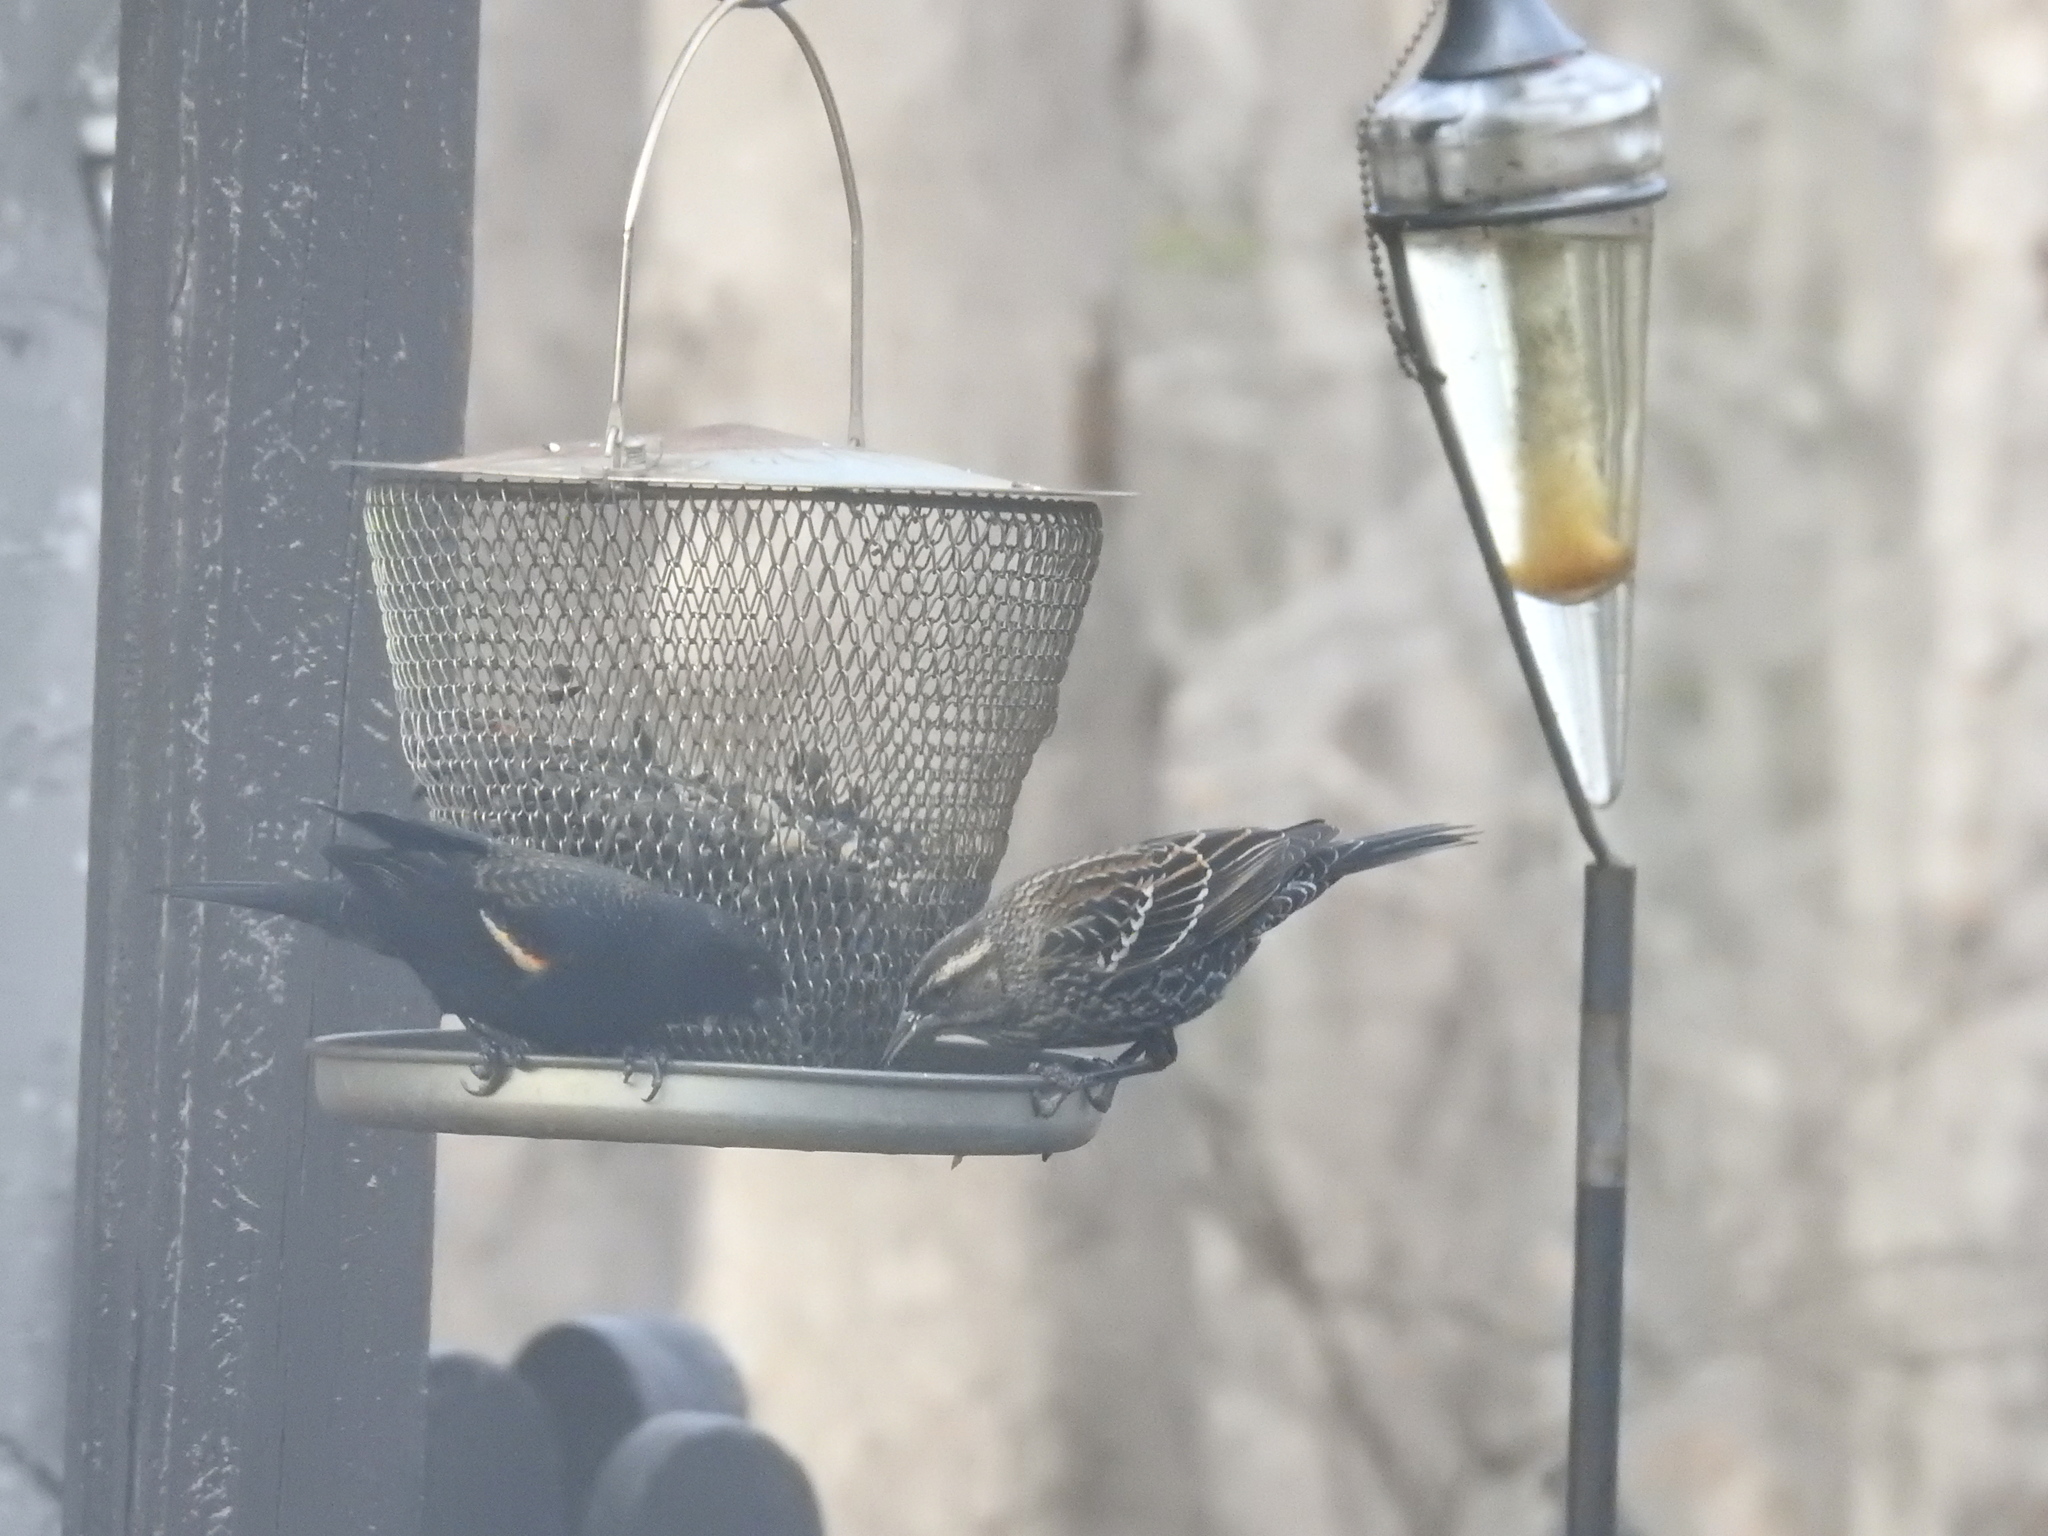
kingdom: Animalia
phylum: Chordata
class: Aves
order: Passeriformes
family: Icteridae
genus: Agelaius
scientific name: Agelaius phoeniceus
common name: Red-winged blackbird
